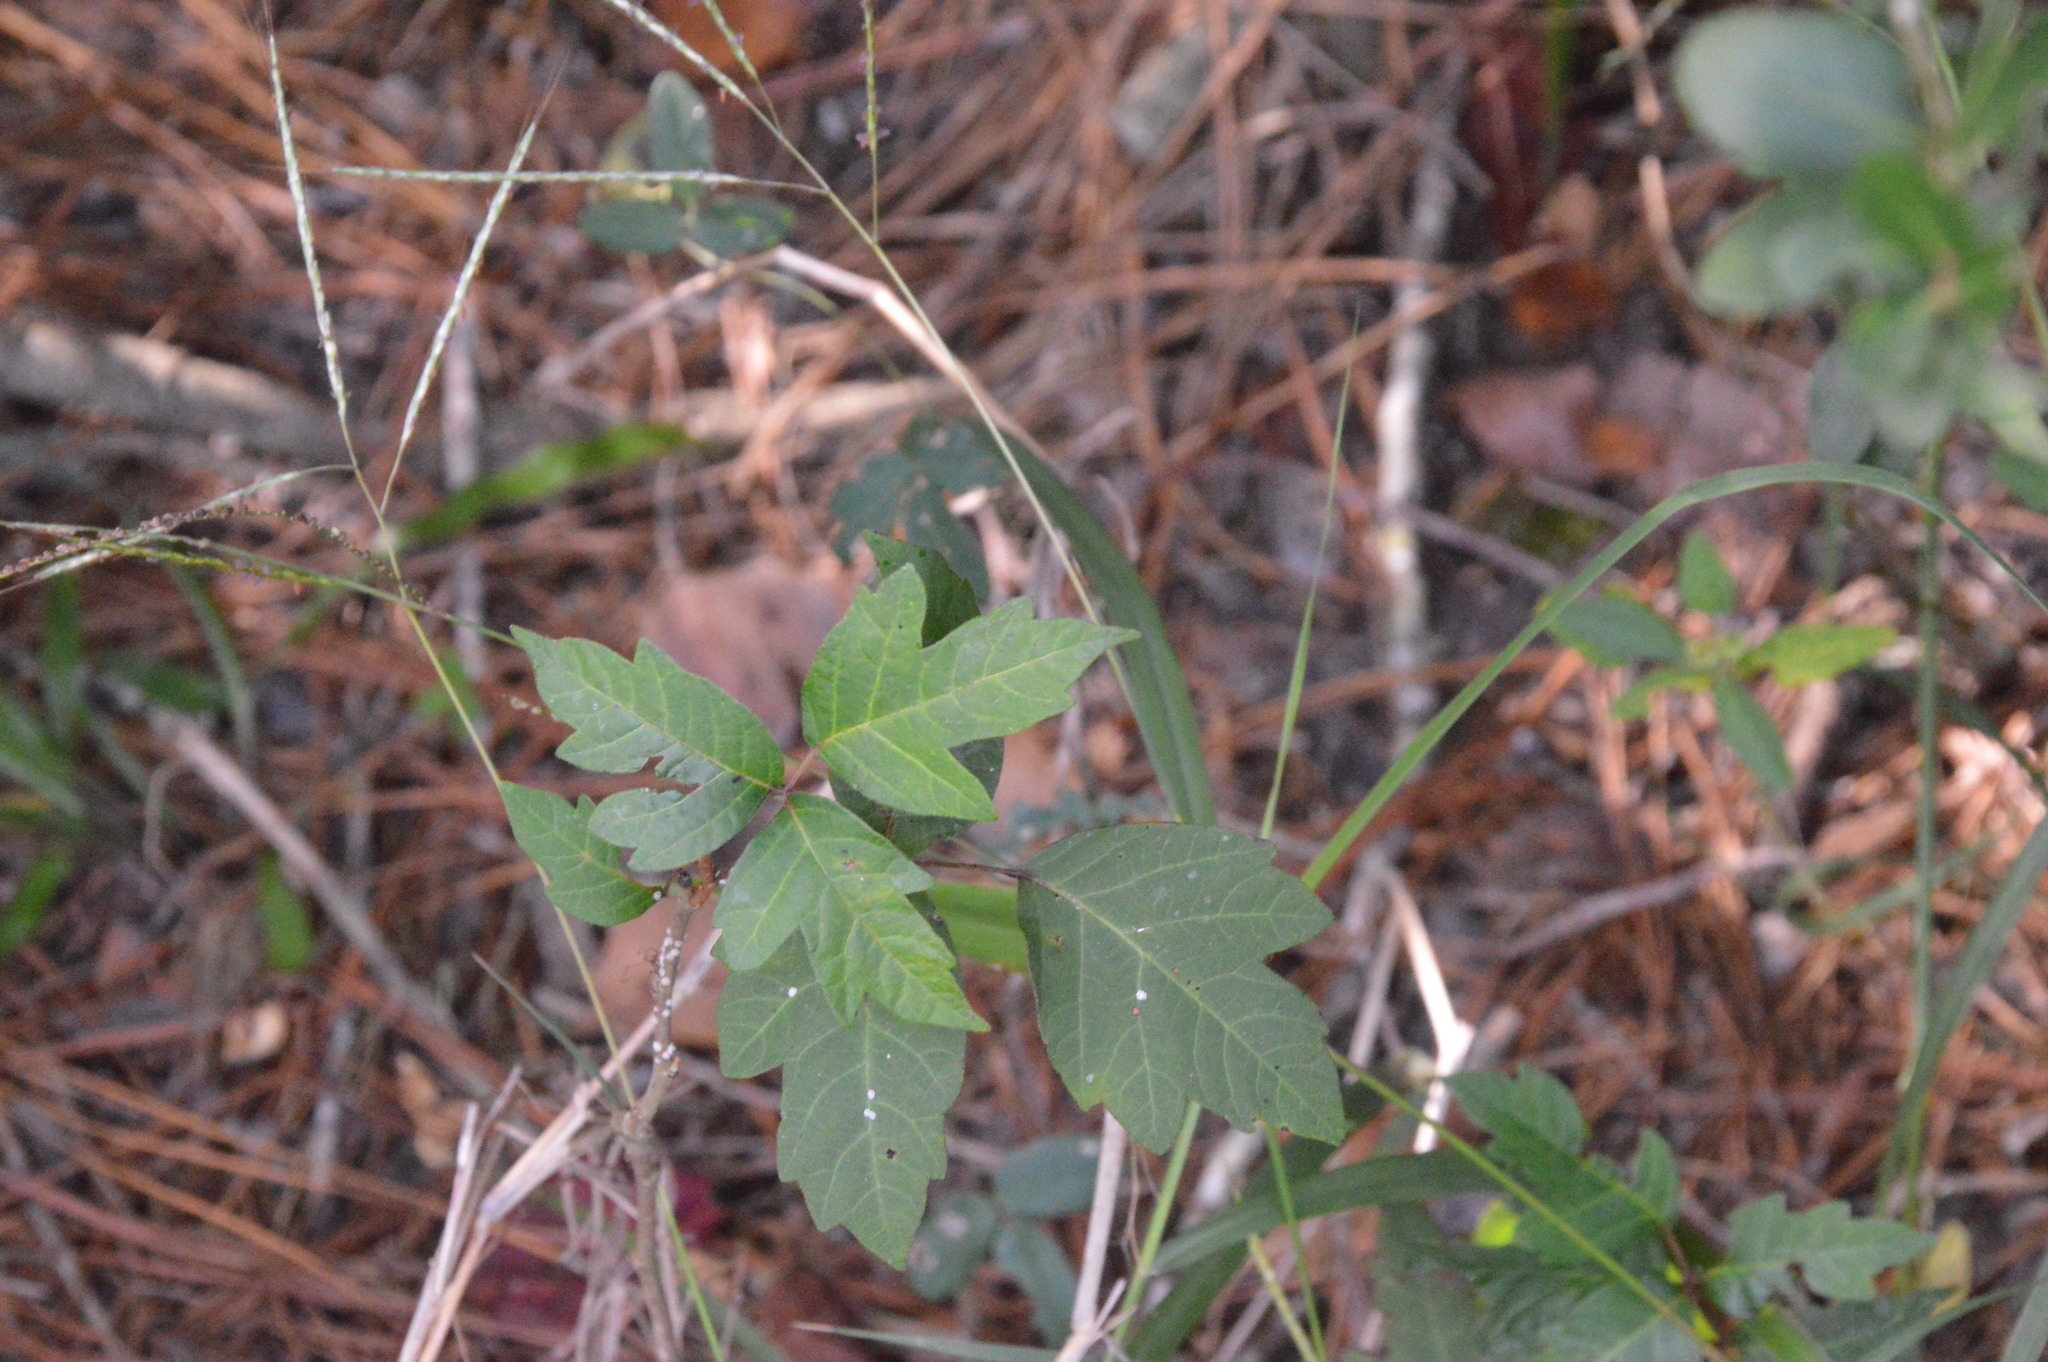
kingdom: Plantae
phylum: Tracheophyta
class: Magnoliopsida
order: Sapindales
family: Anacardiaceae
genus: Toxicodendron
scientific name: Toxicodendron radicans
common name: Poison ivy
